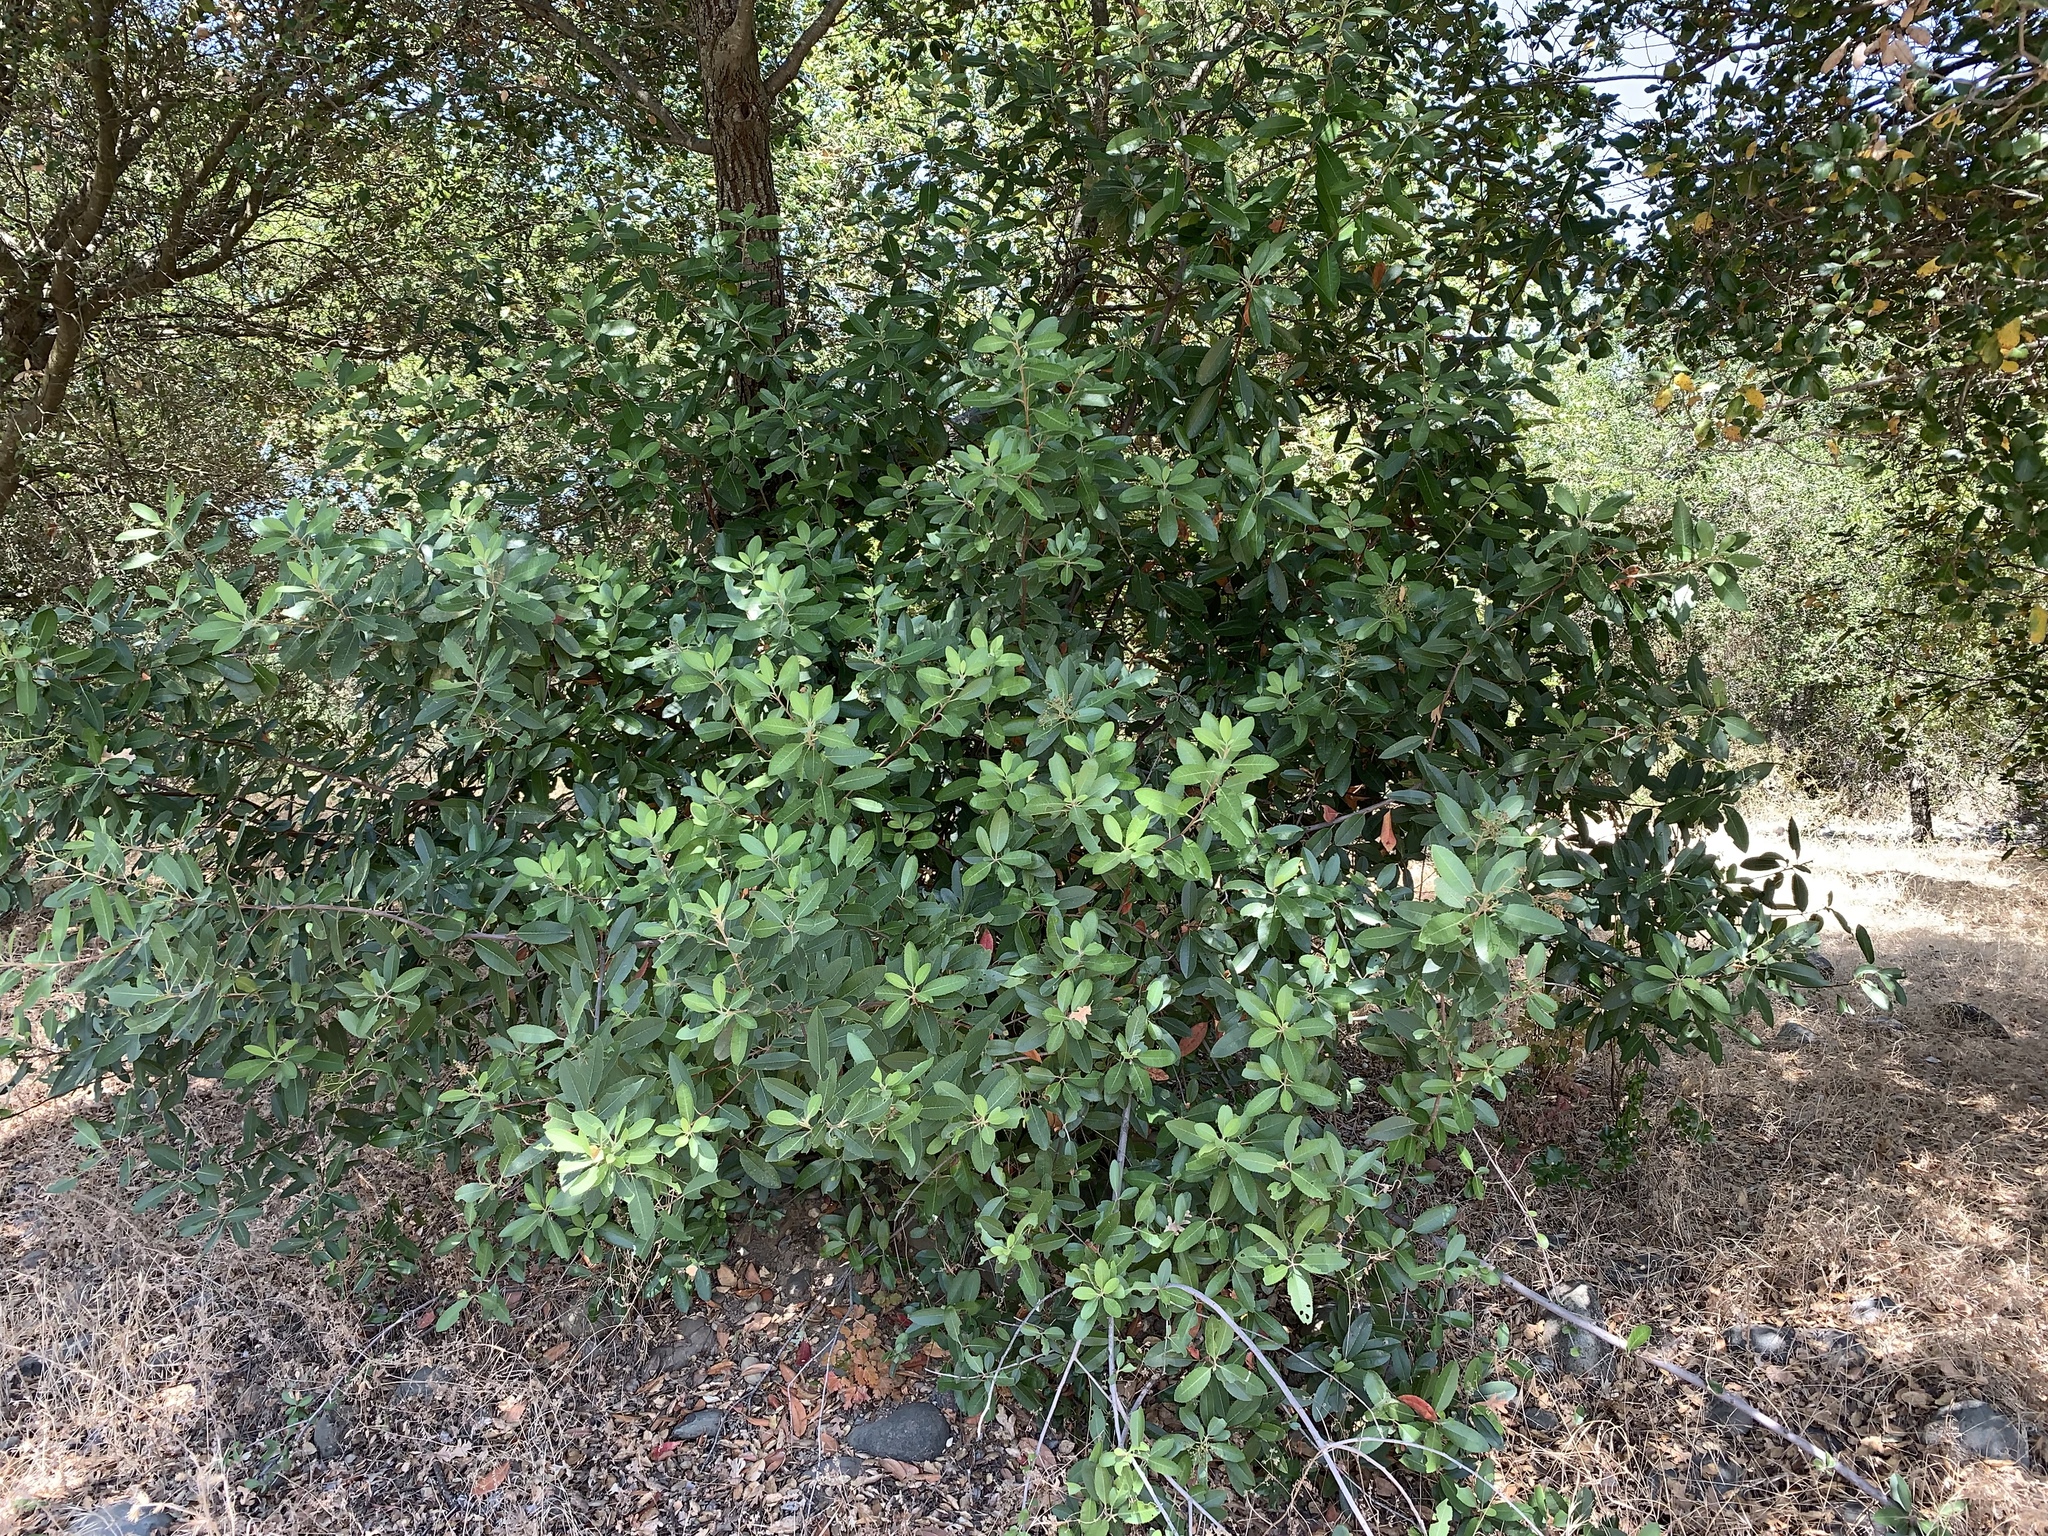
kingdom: Plantae
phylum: Tracheophyta
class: Magnoliopsida
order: Rosales
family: Rosaceae
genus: Heteromeles
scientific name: Heteromeles arbutifolia
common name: California-holly
